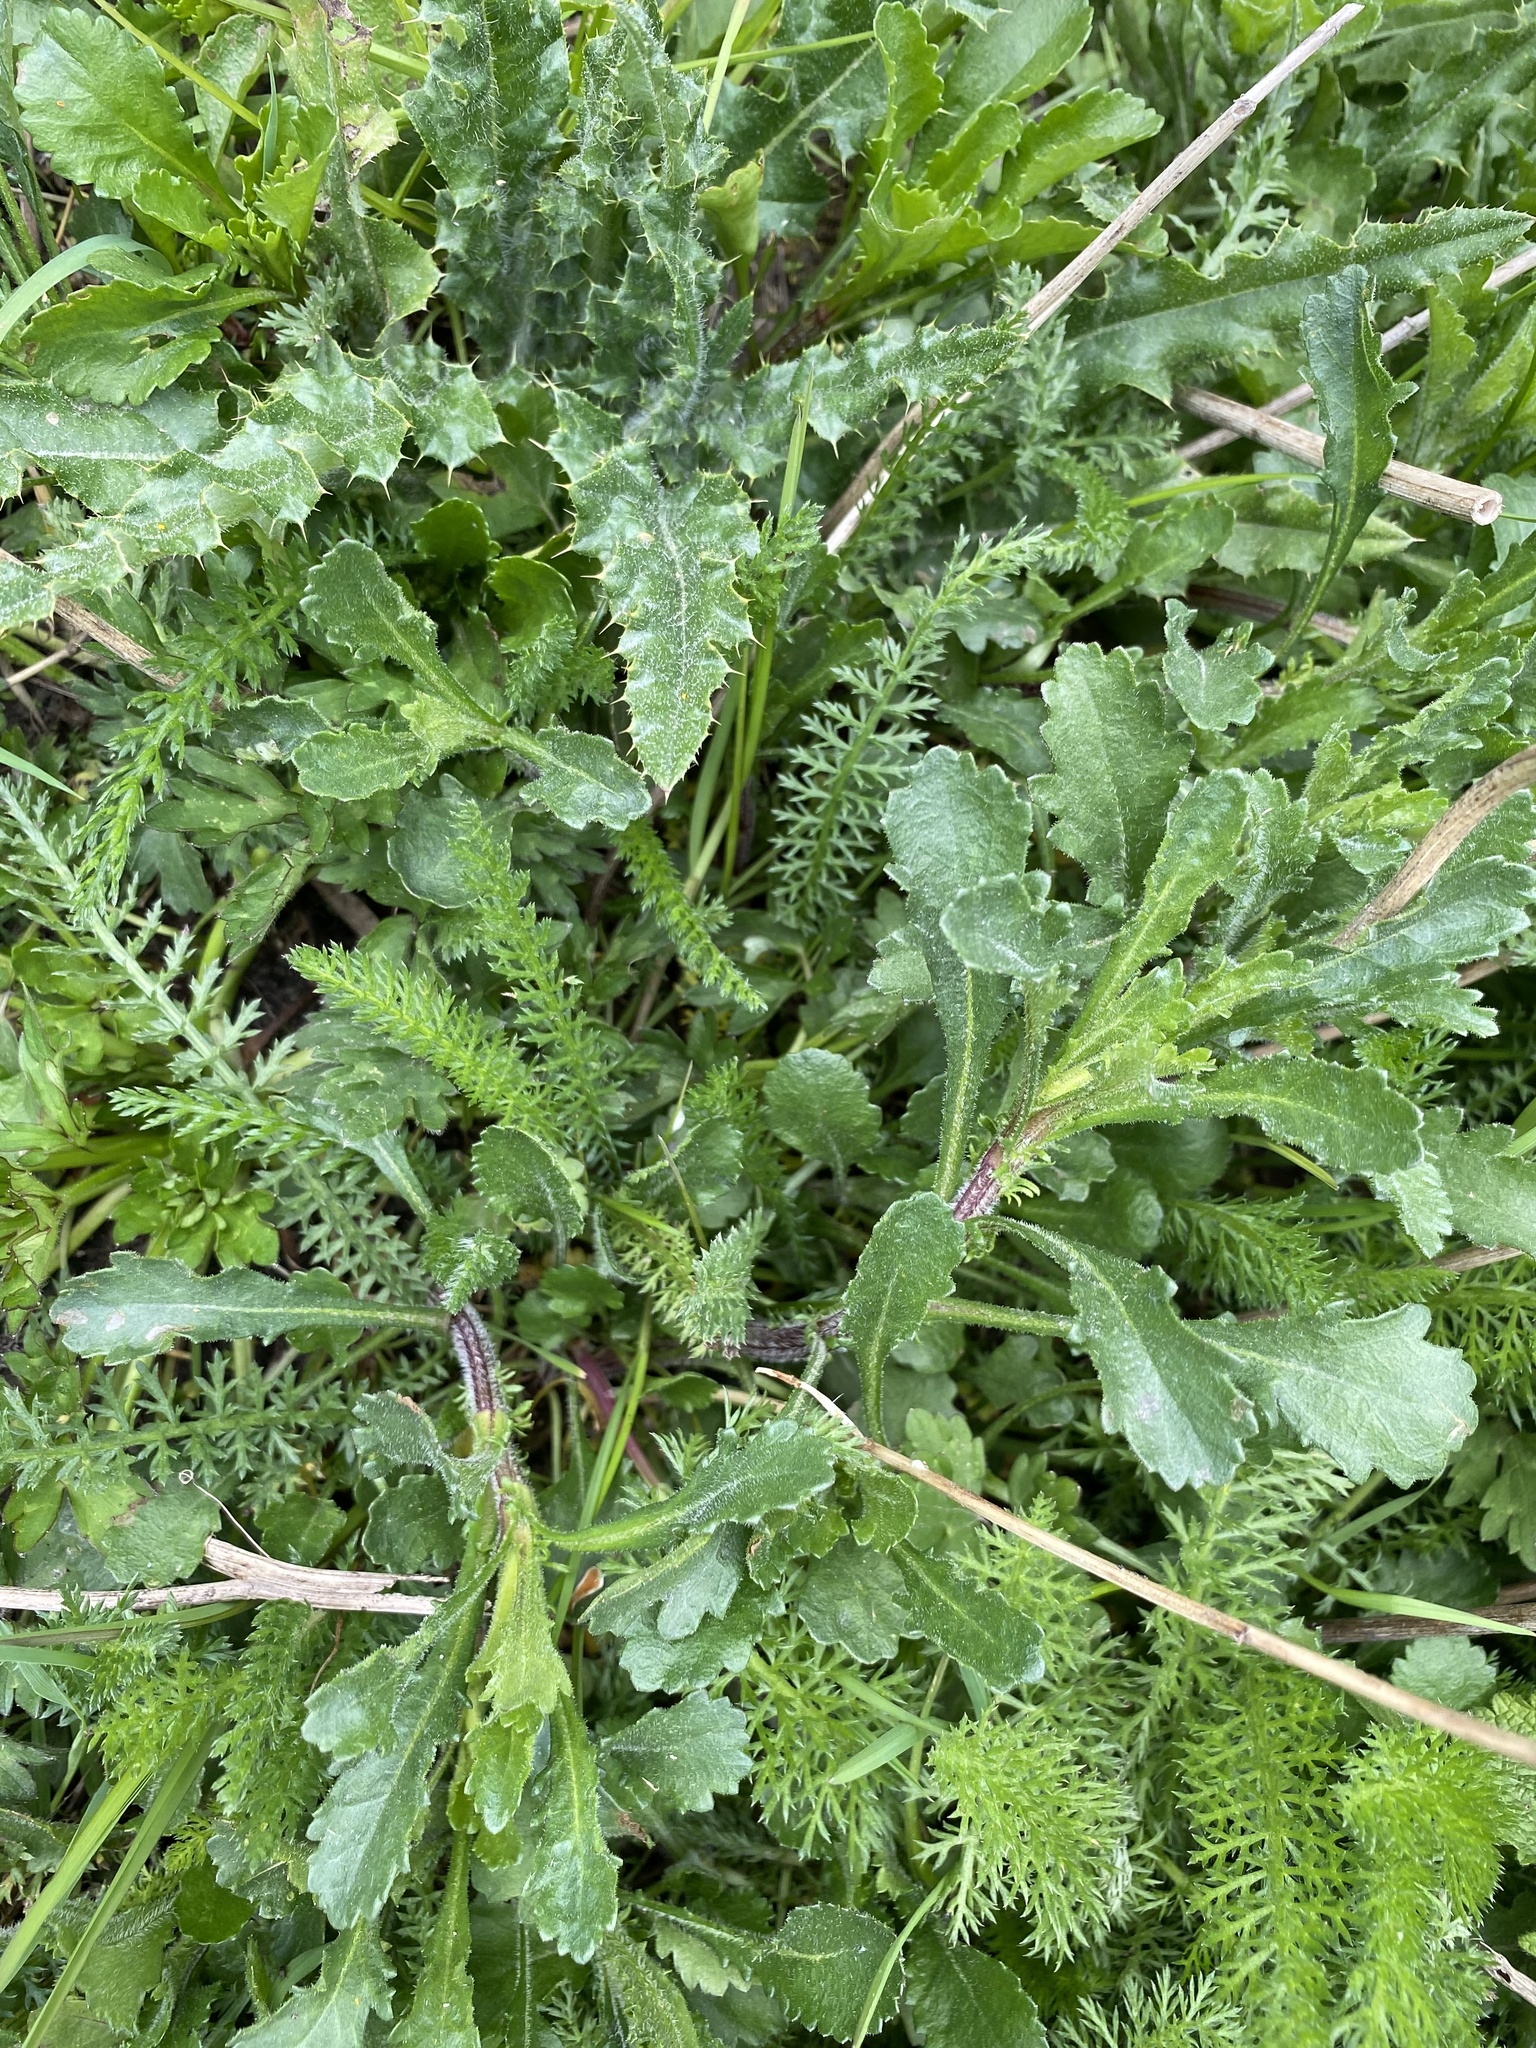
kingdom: Plantae
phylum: Tracheophyta
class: Magnoliopsida
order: Asterales
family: Asteraceae
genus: Leucanthemum
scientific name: Leucanthemum vulgare
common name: Oxeye daisy
